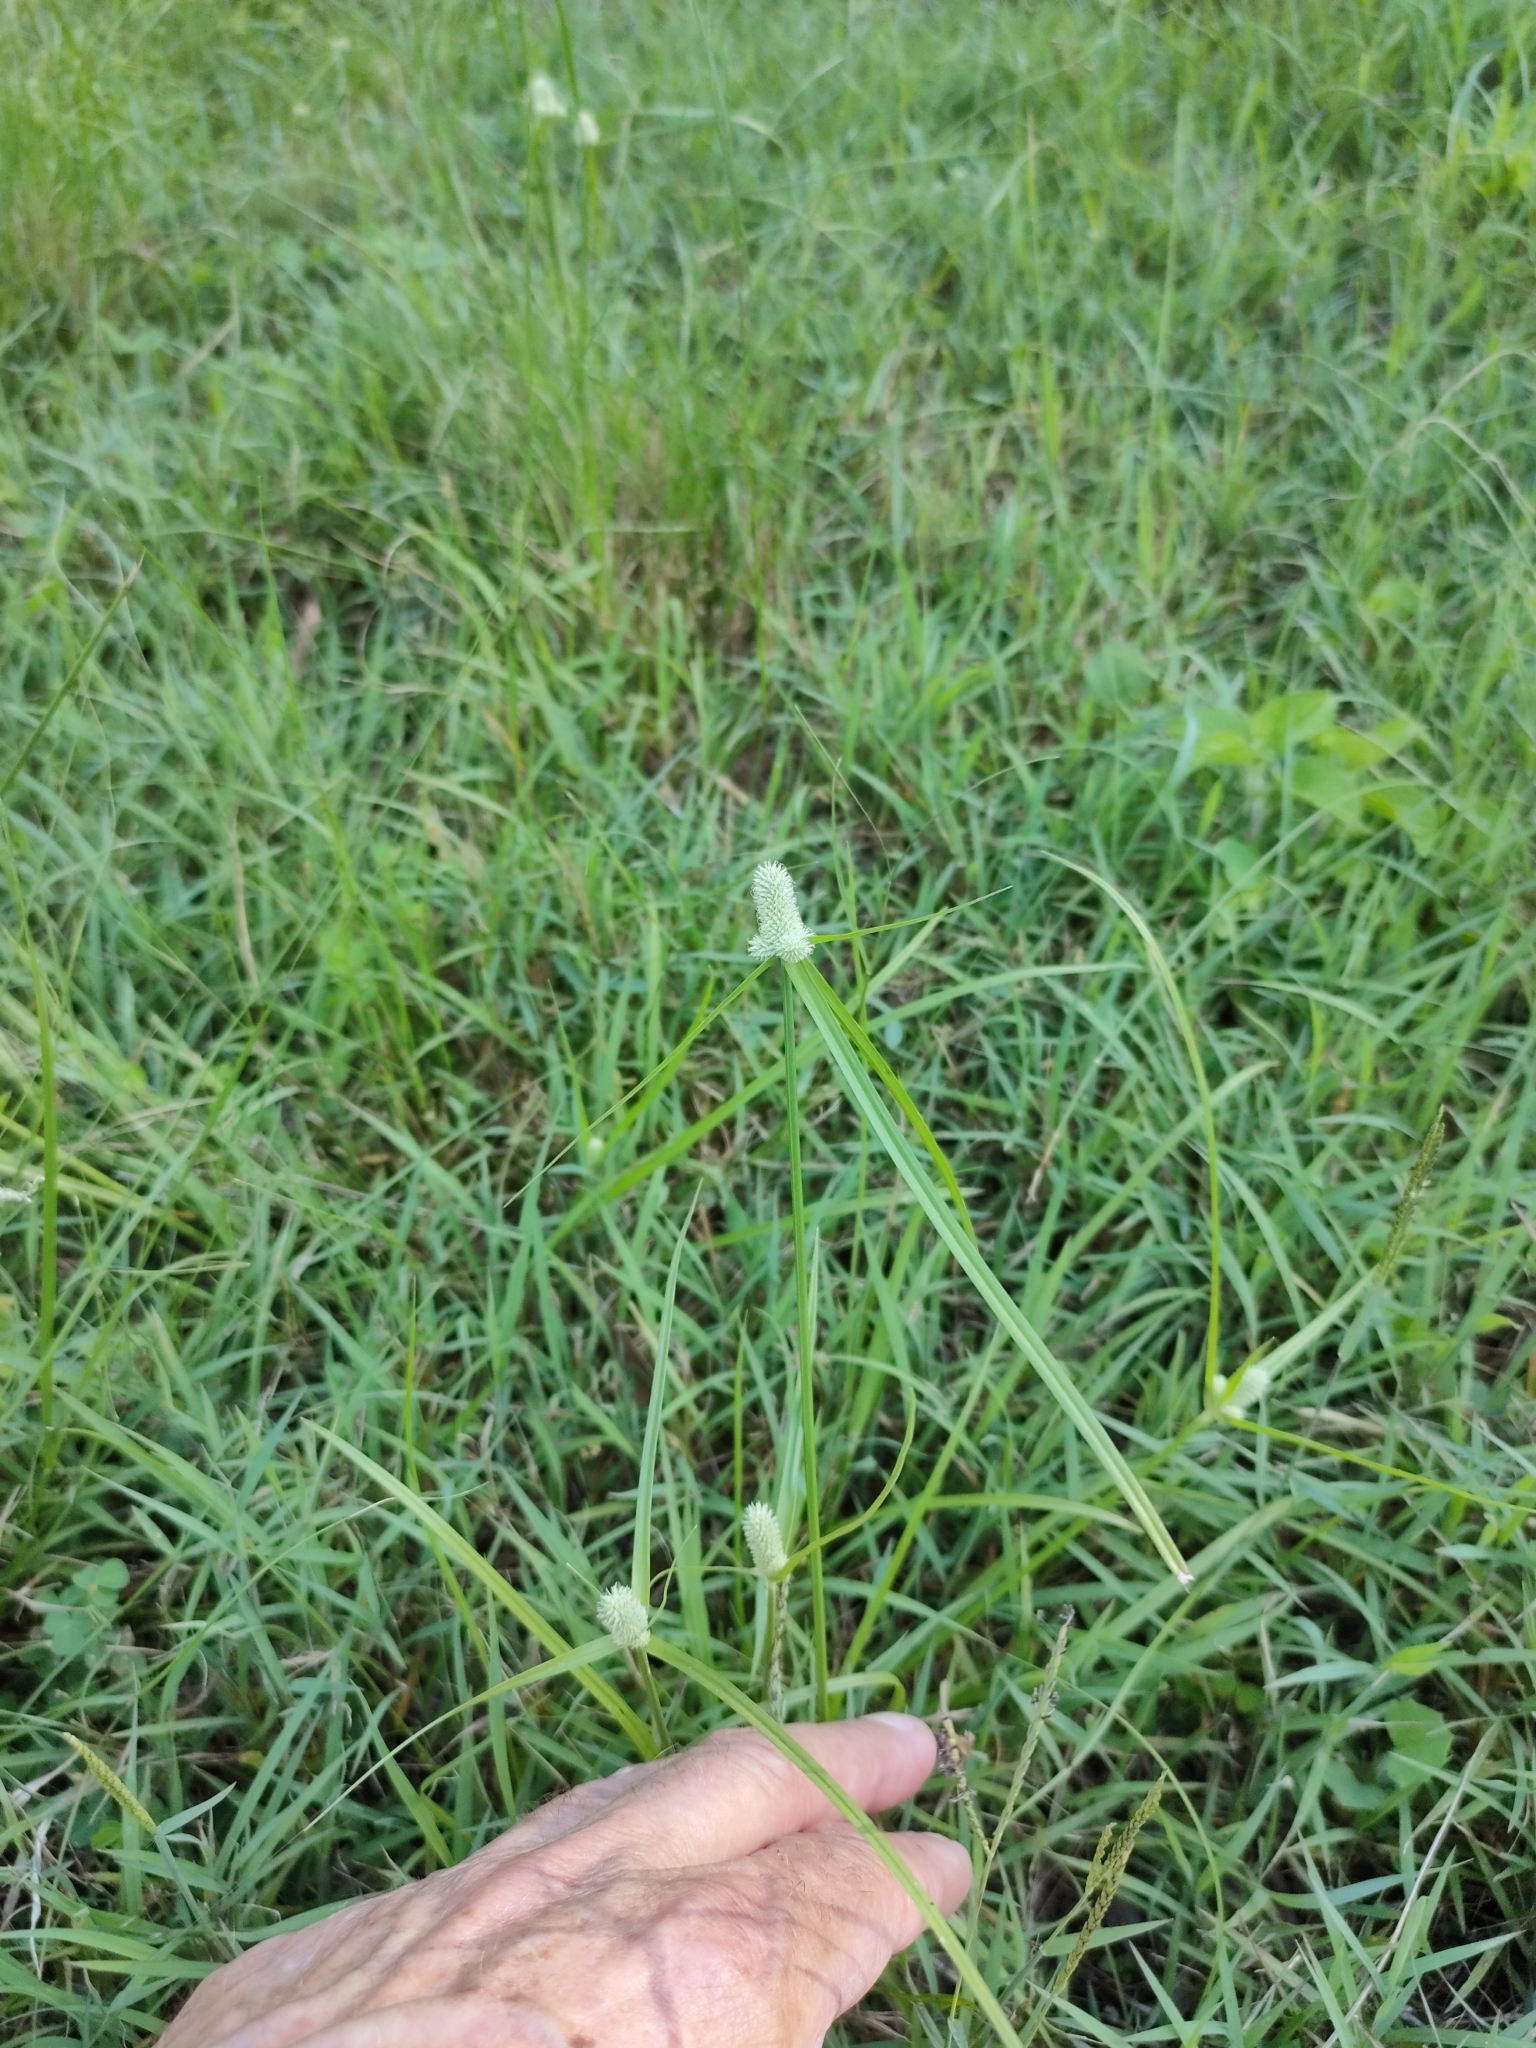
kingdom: Plantae
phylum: Tracheophyta
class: Liliopsida
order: Poales
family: Cyperaceae
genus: Cyperus
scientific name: Cyperus sesquiflorus
